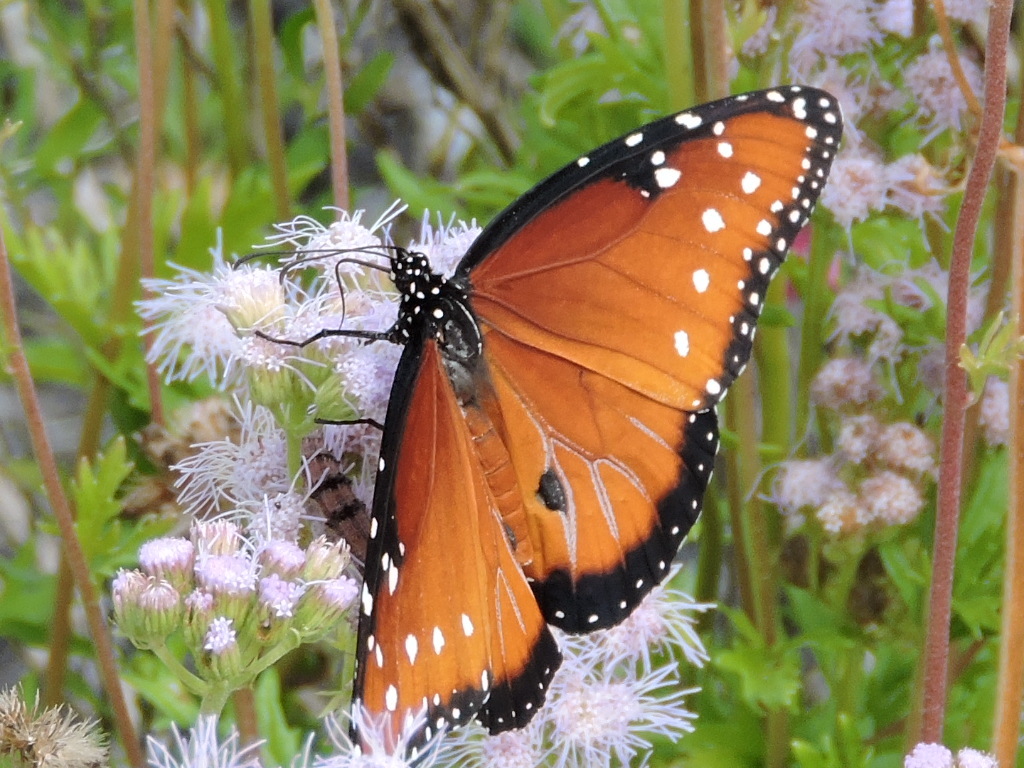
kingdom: Animalia
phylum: Arthropoda
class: Insecta
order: Lepidoptera
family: Nymphalidae
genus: Danaus
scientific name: Danaus gilippus
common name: Queen
